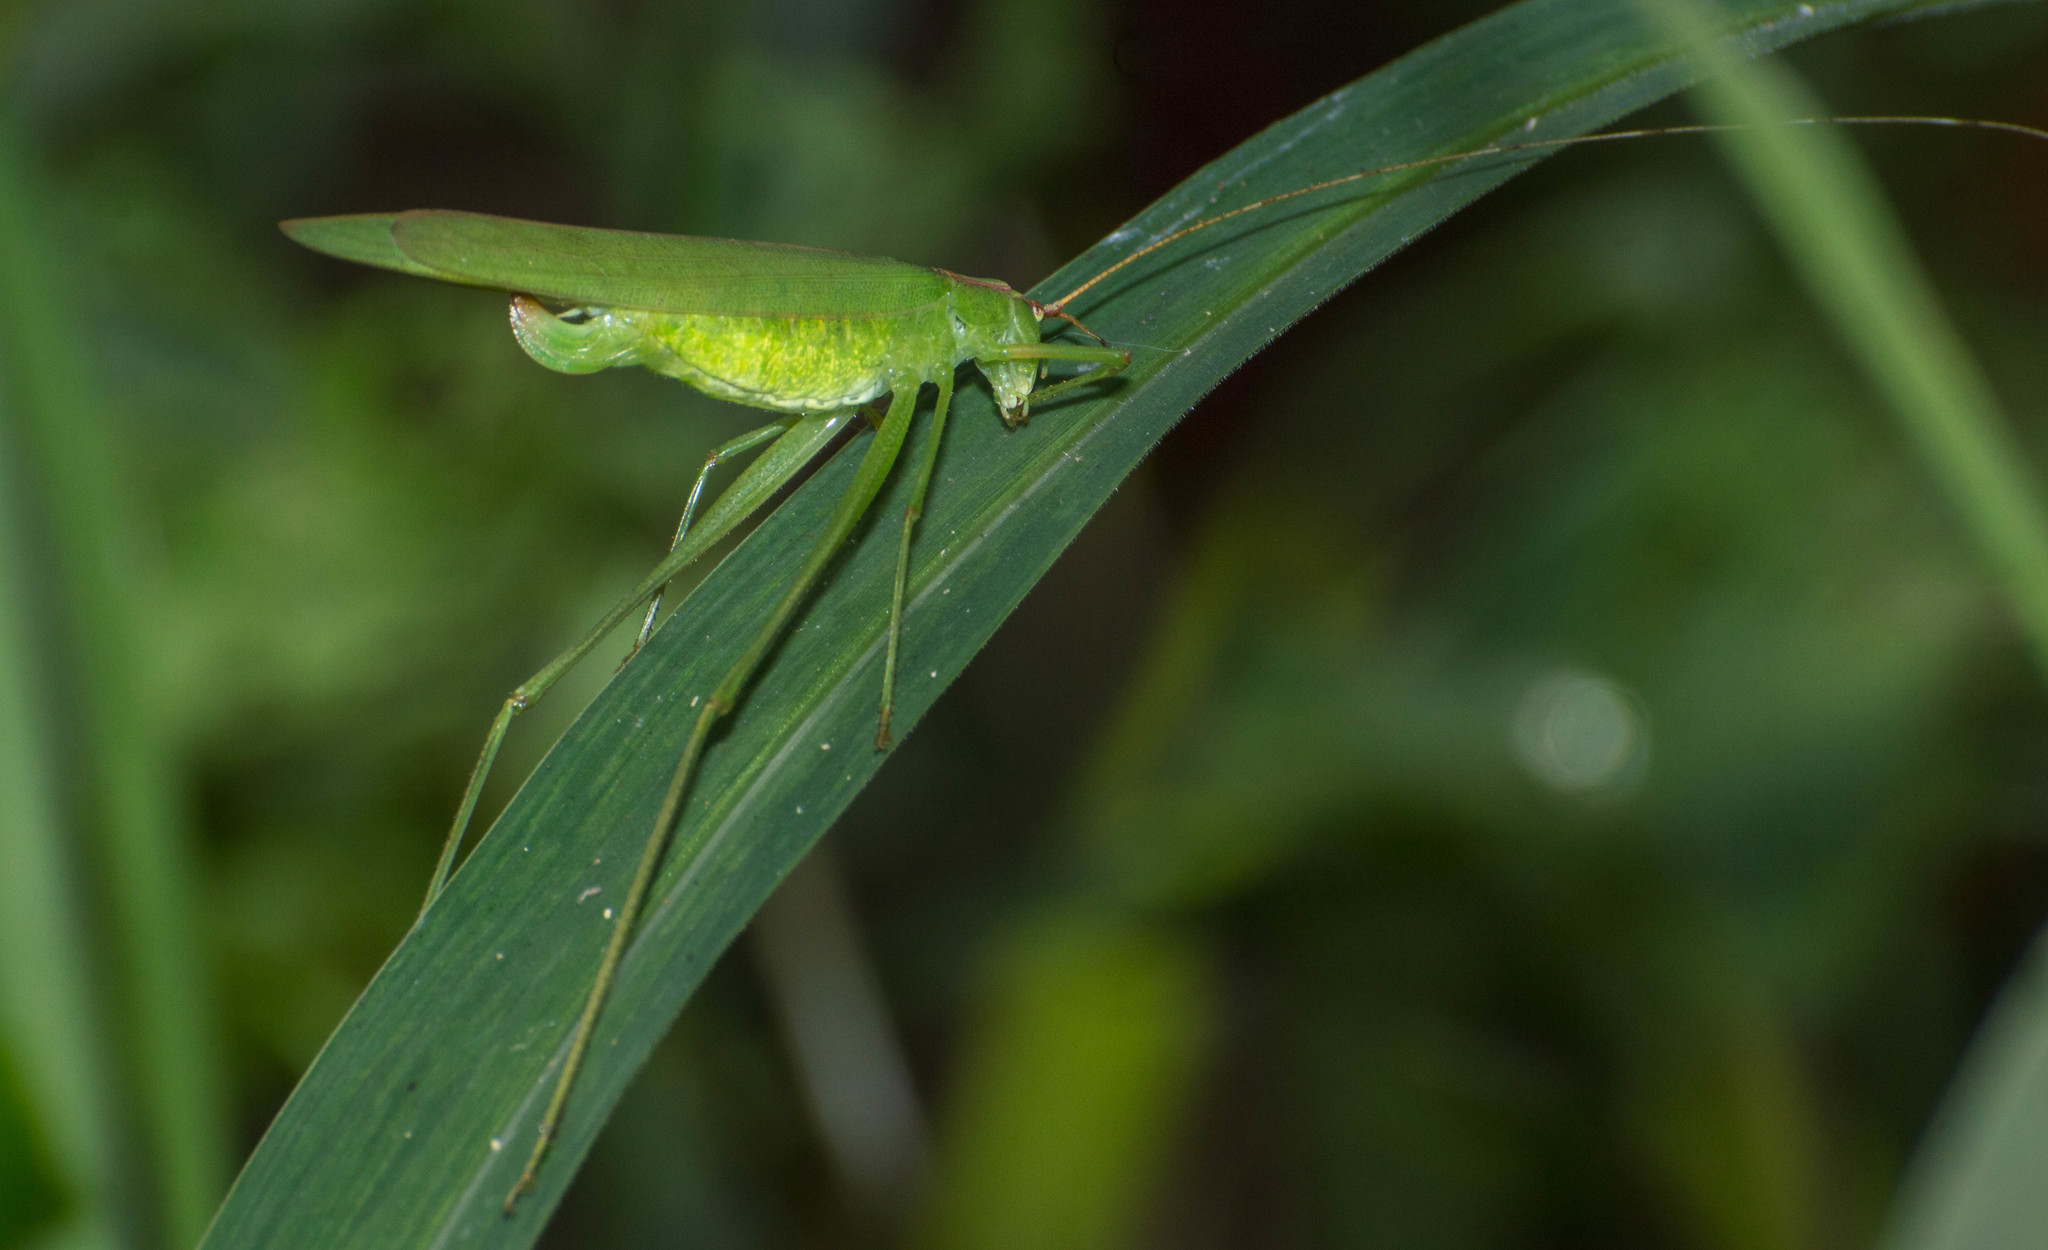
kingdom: Animalia
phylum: Arthropoda
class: Insecta
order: Orthoptera
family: Tettigoniidae
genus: Hyperophora
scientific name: Hyperophora major
